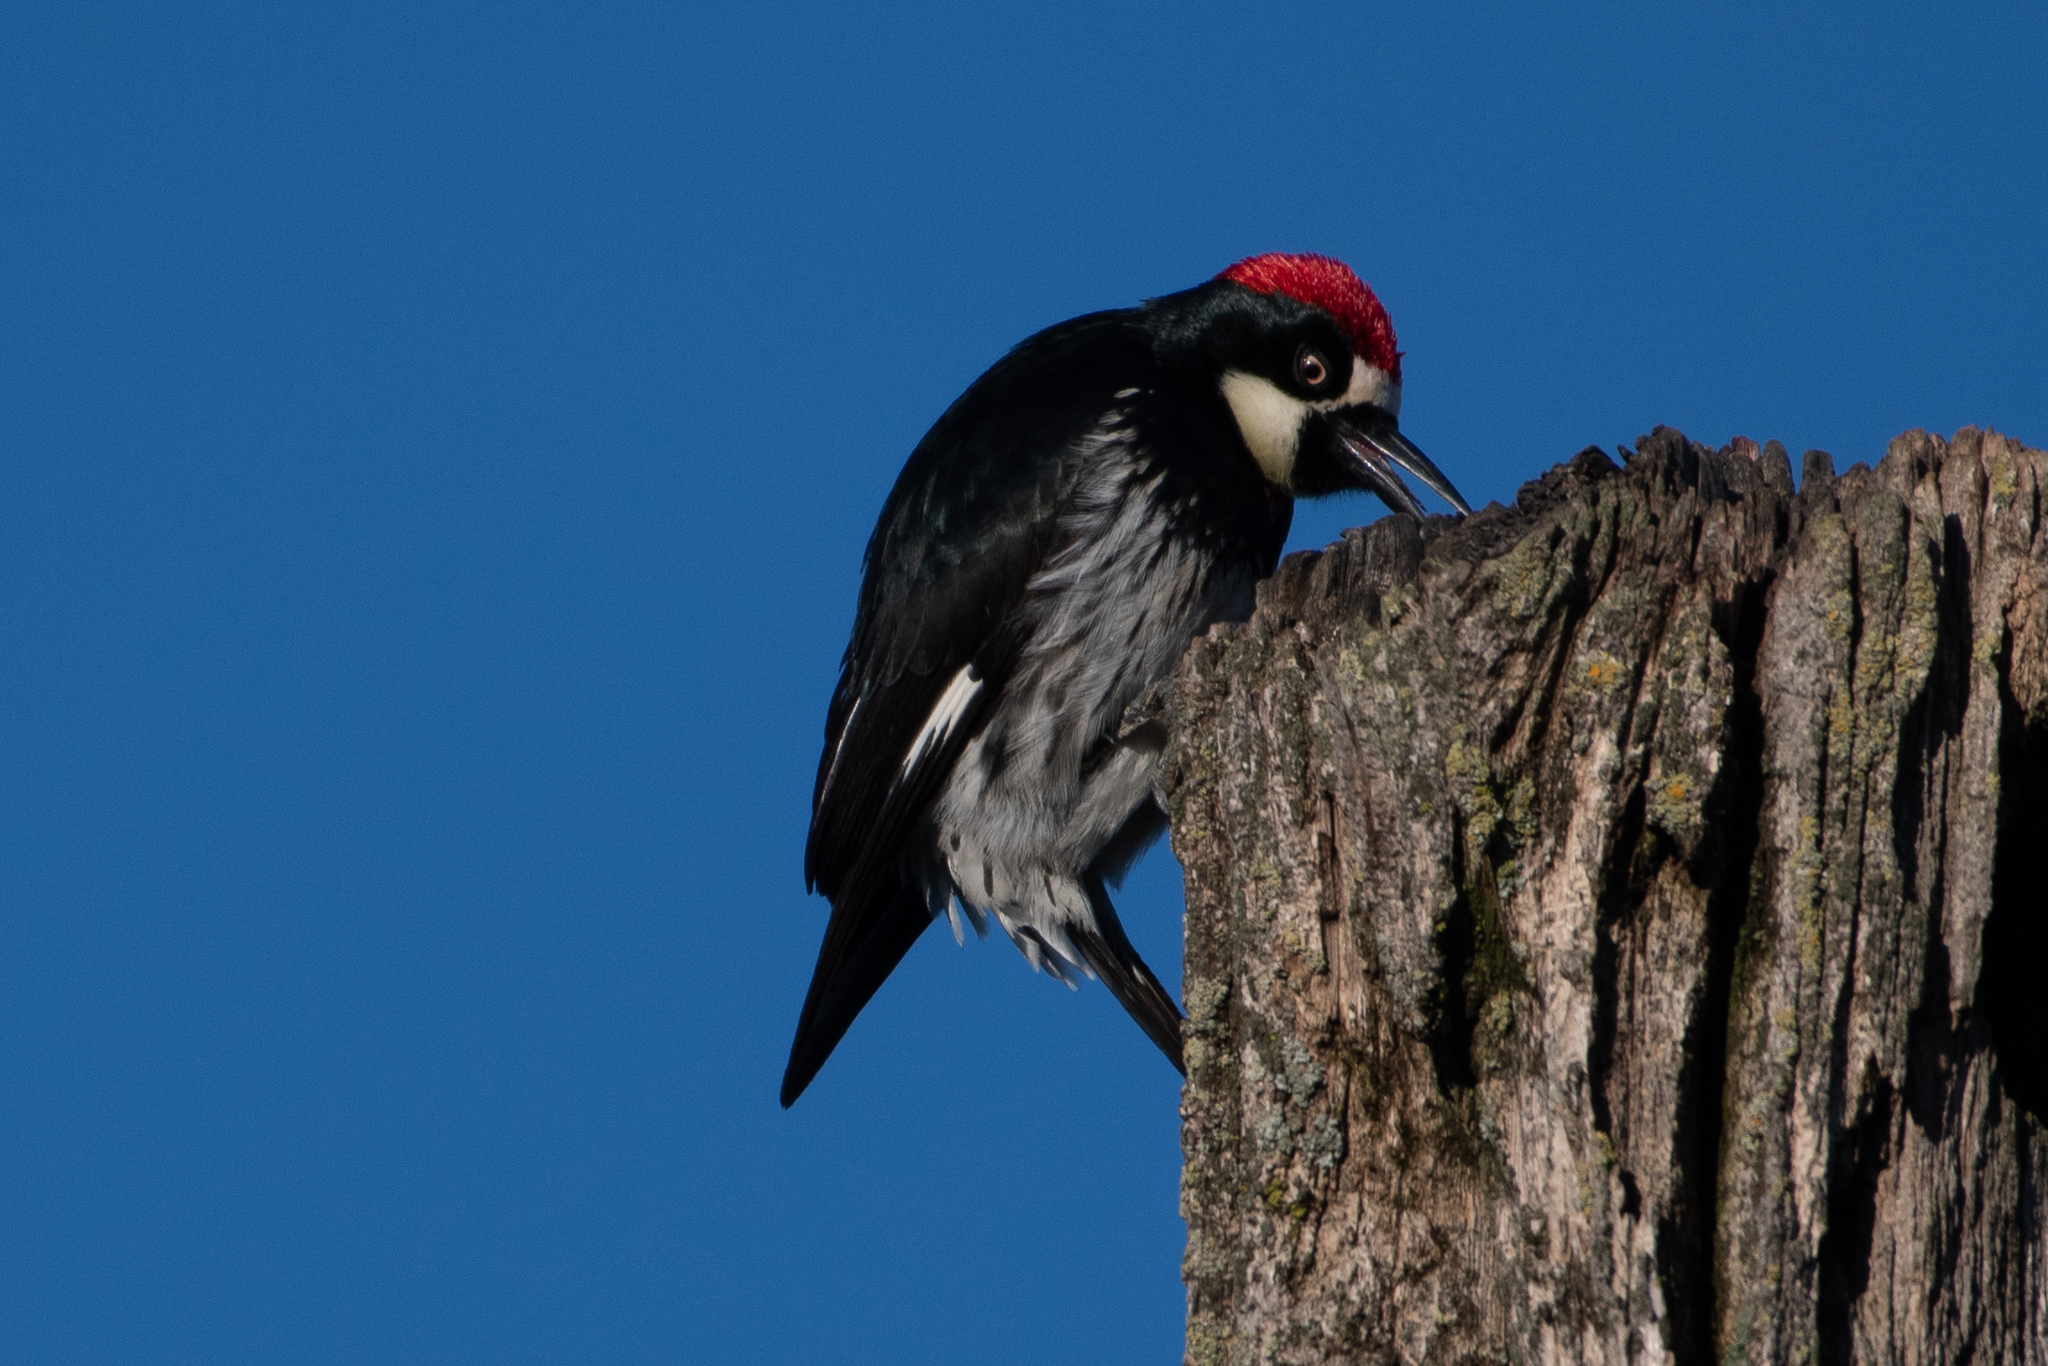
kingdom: Animalia
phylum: Chordata
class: Aves
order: Piciformes
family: Picidae
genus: Melanerpes
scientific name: Melanerpes formicivorus
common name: Acorn woodpecker
